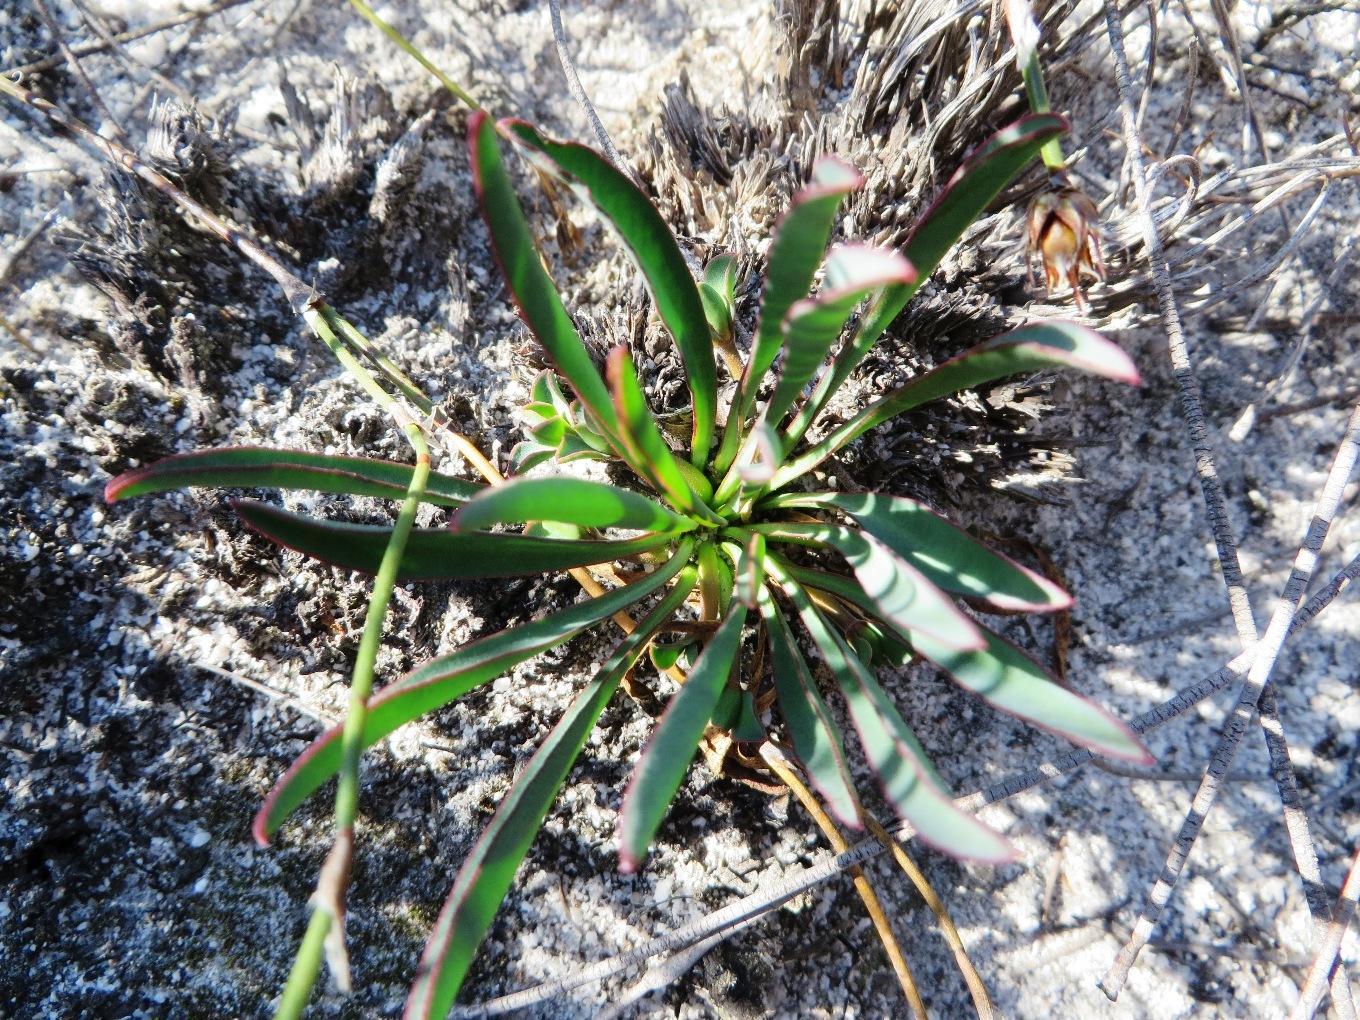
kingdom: Plantae
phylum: Tracheophyta
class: Magnoliopsida
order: Malpighiales
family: Euphorbiaceae
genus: Euphorbia
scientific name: Euphorbia silenifolia
